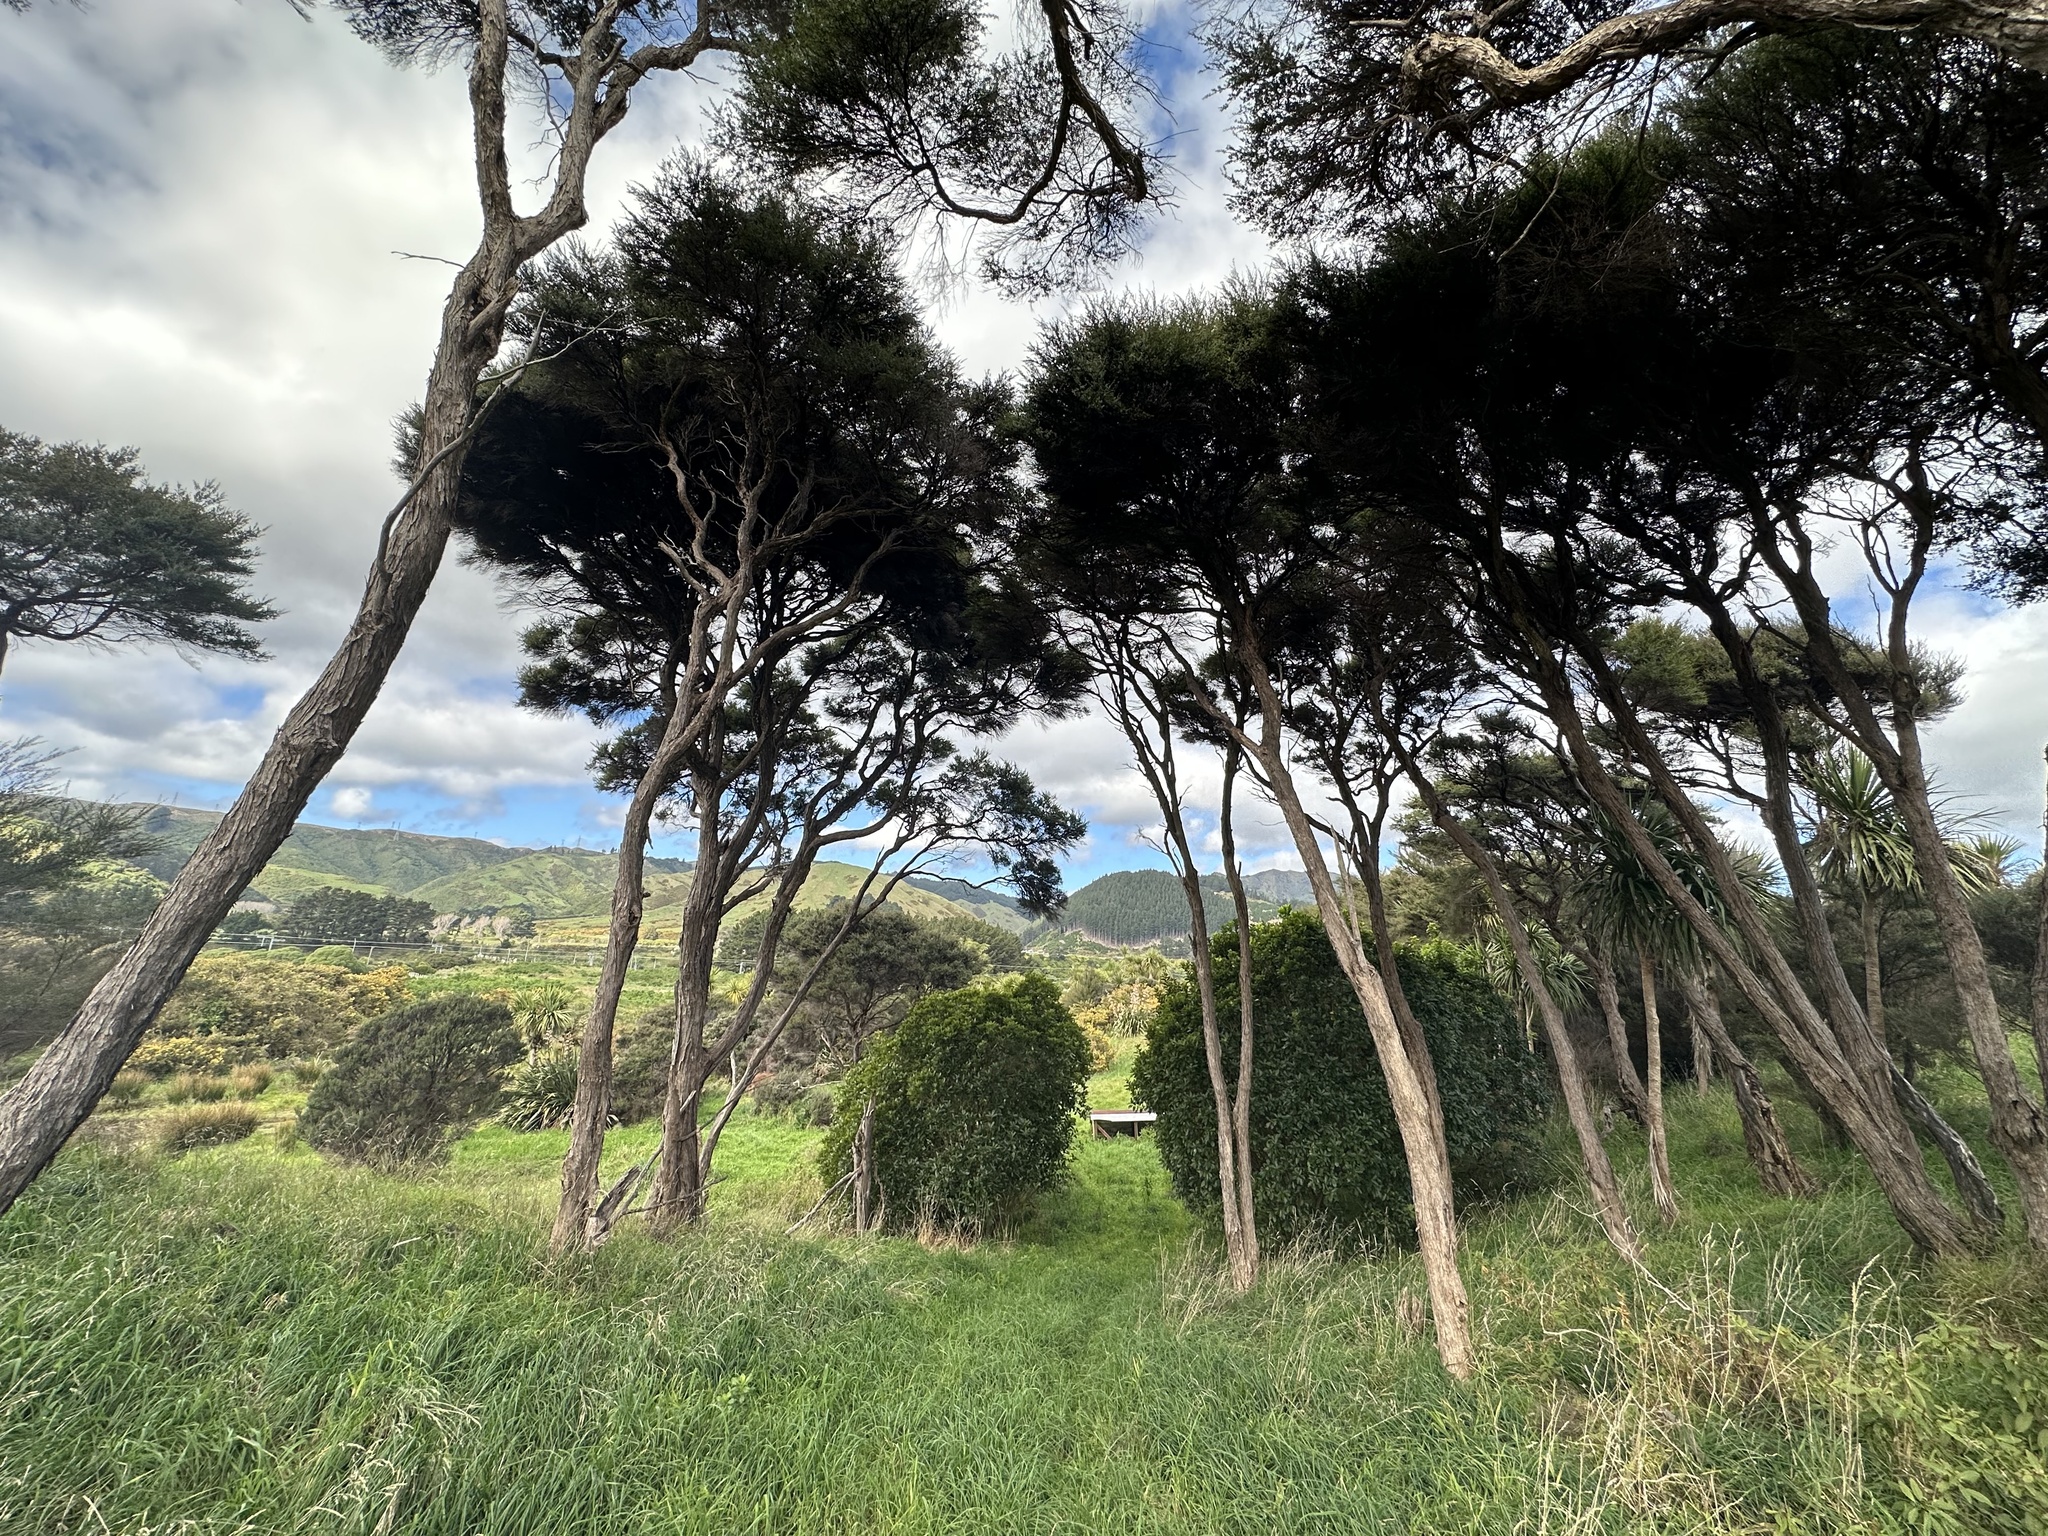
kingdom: Plantae
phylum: Tracheophyta
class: Magnoliopsida
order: Myrtales
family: Myrtaceae
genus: Kunzea
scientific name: Kunzea robusta
